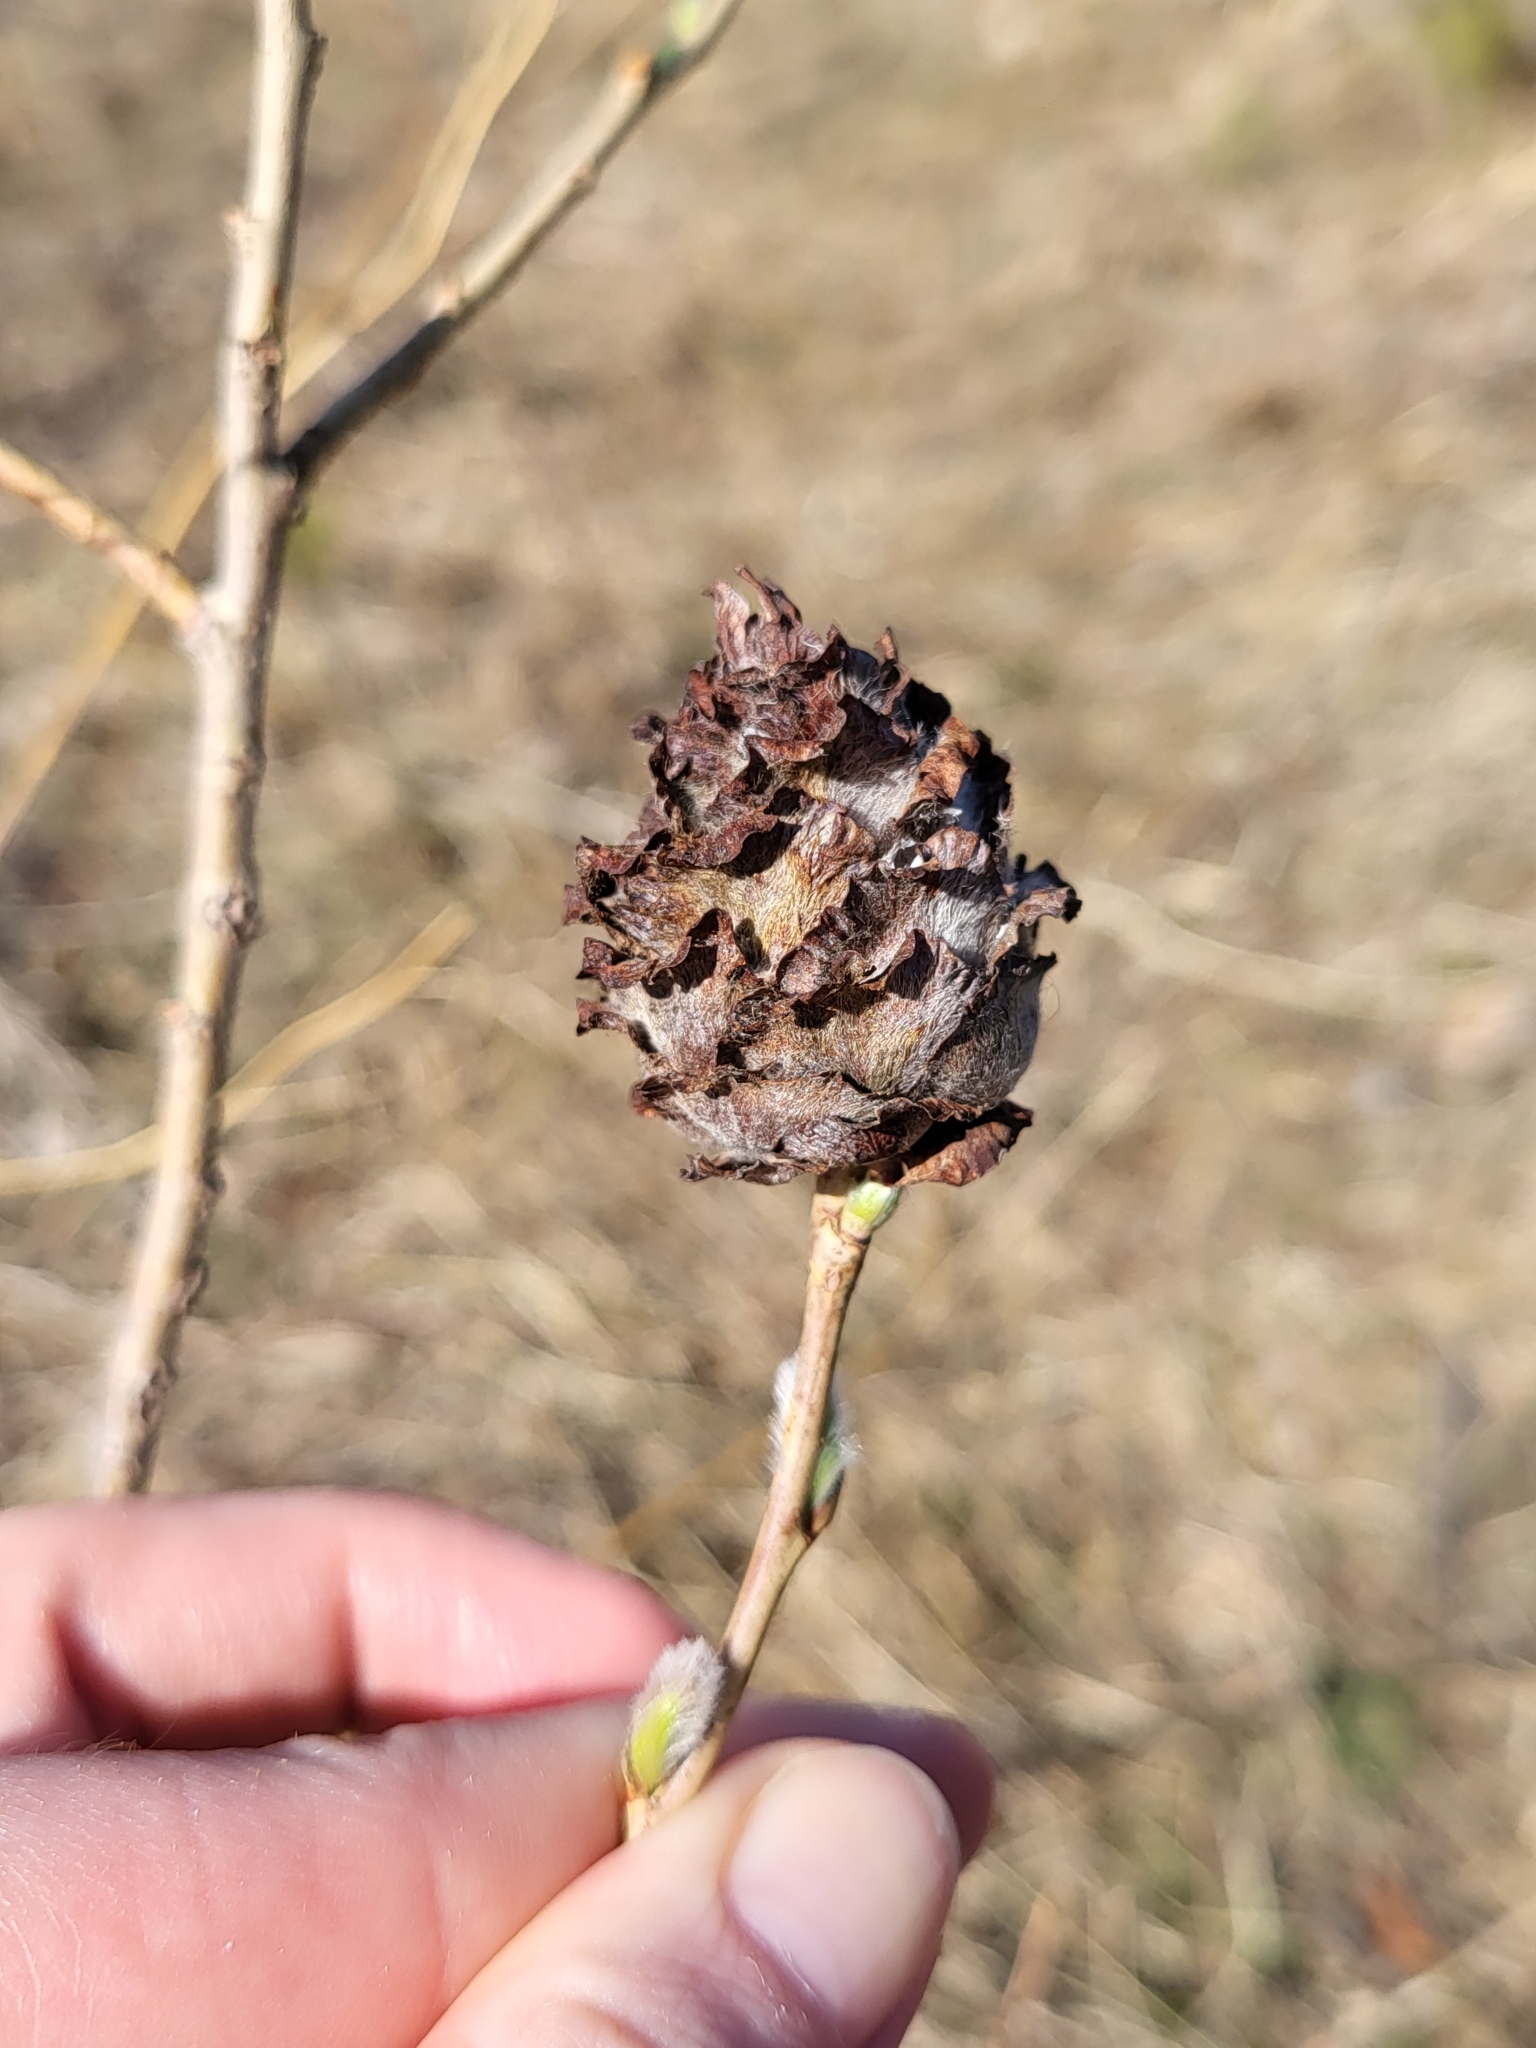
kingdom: Animalia
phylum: Arthropoda
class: Insecta
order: Diptera
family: Cecidomyiidae
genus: Rabdophaga
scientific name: Rabdophaga strobiloides
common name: Willow pinecone gall midge
